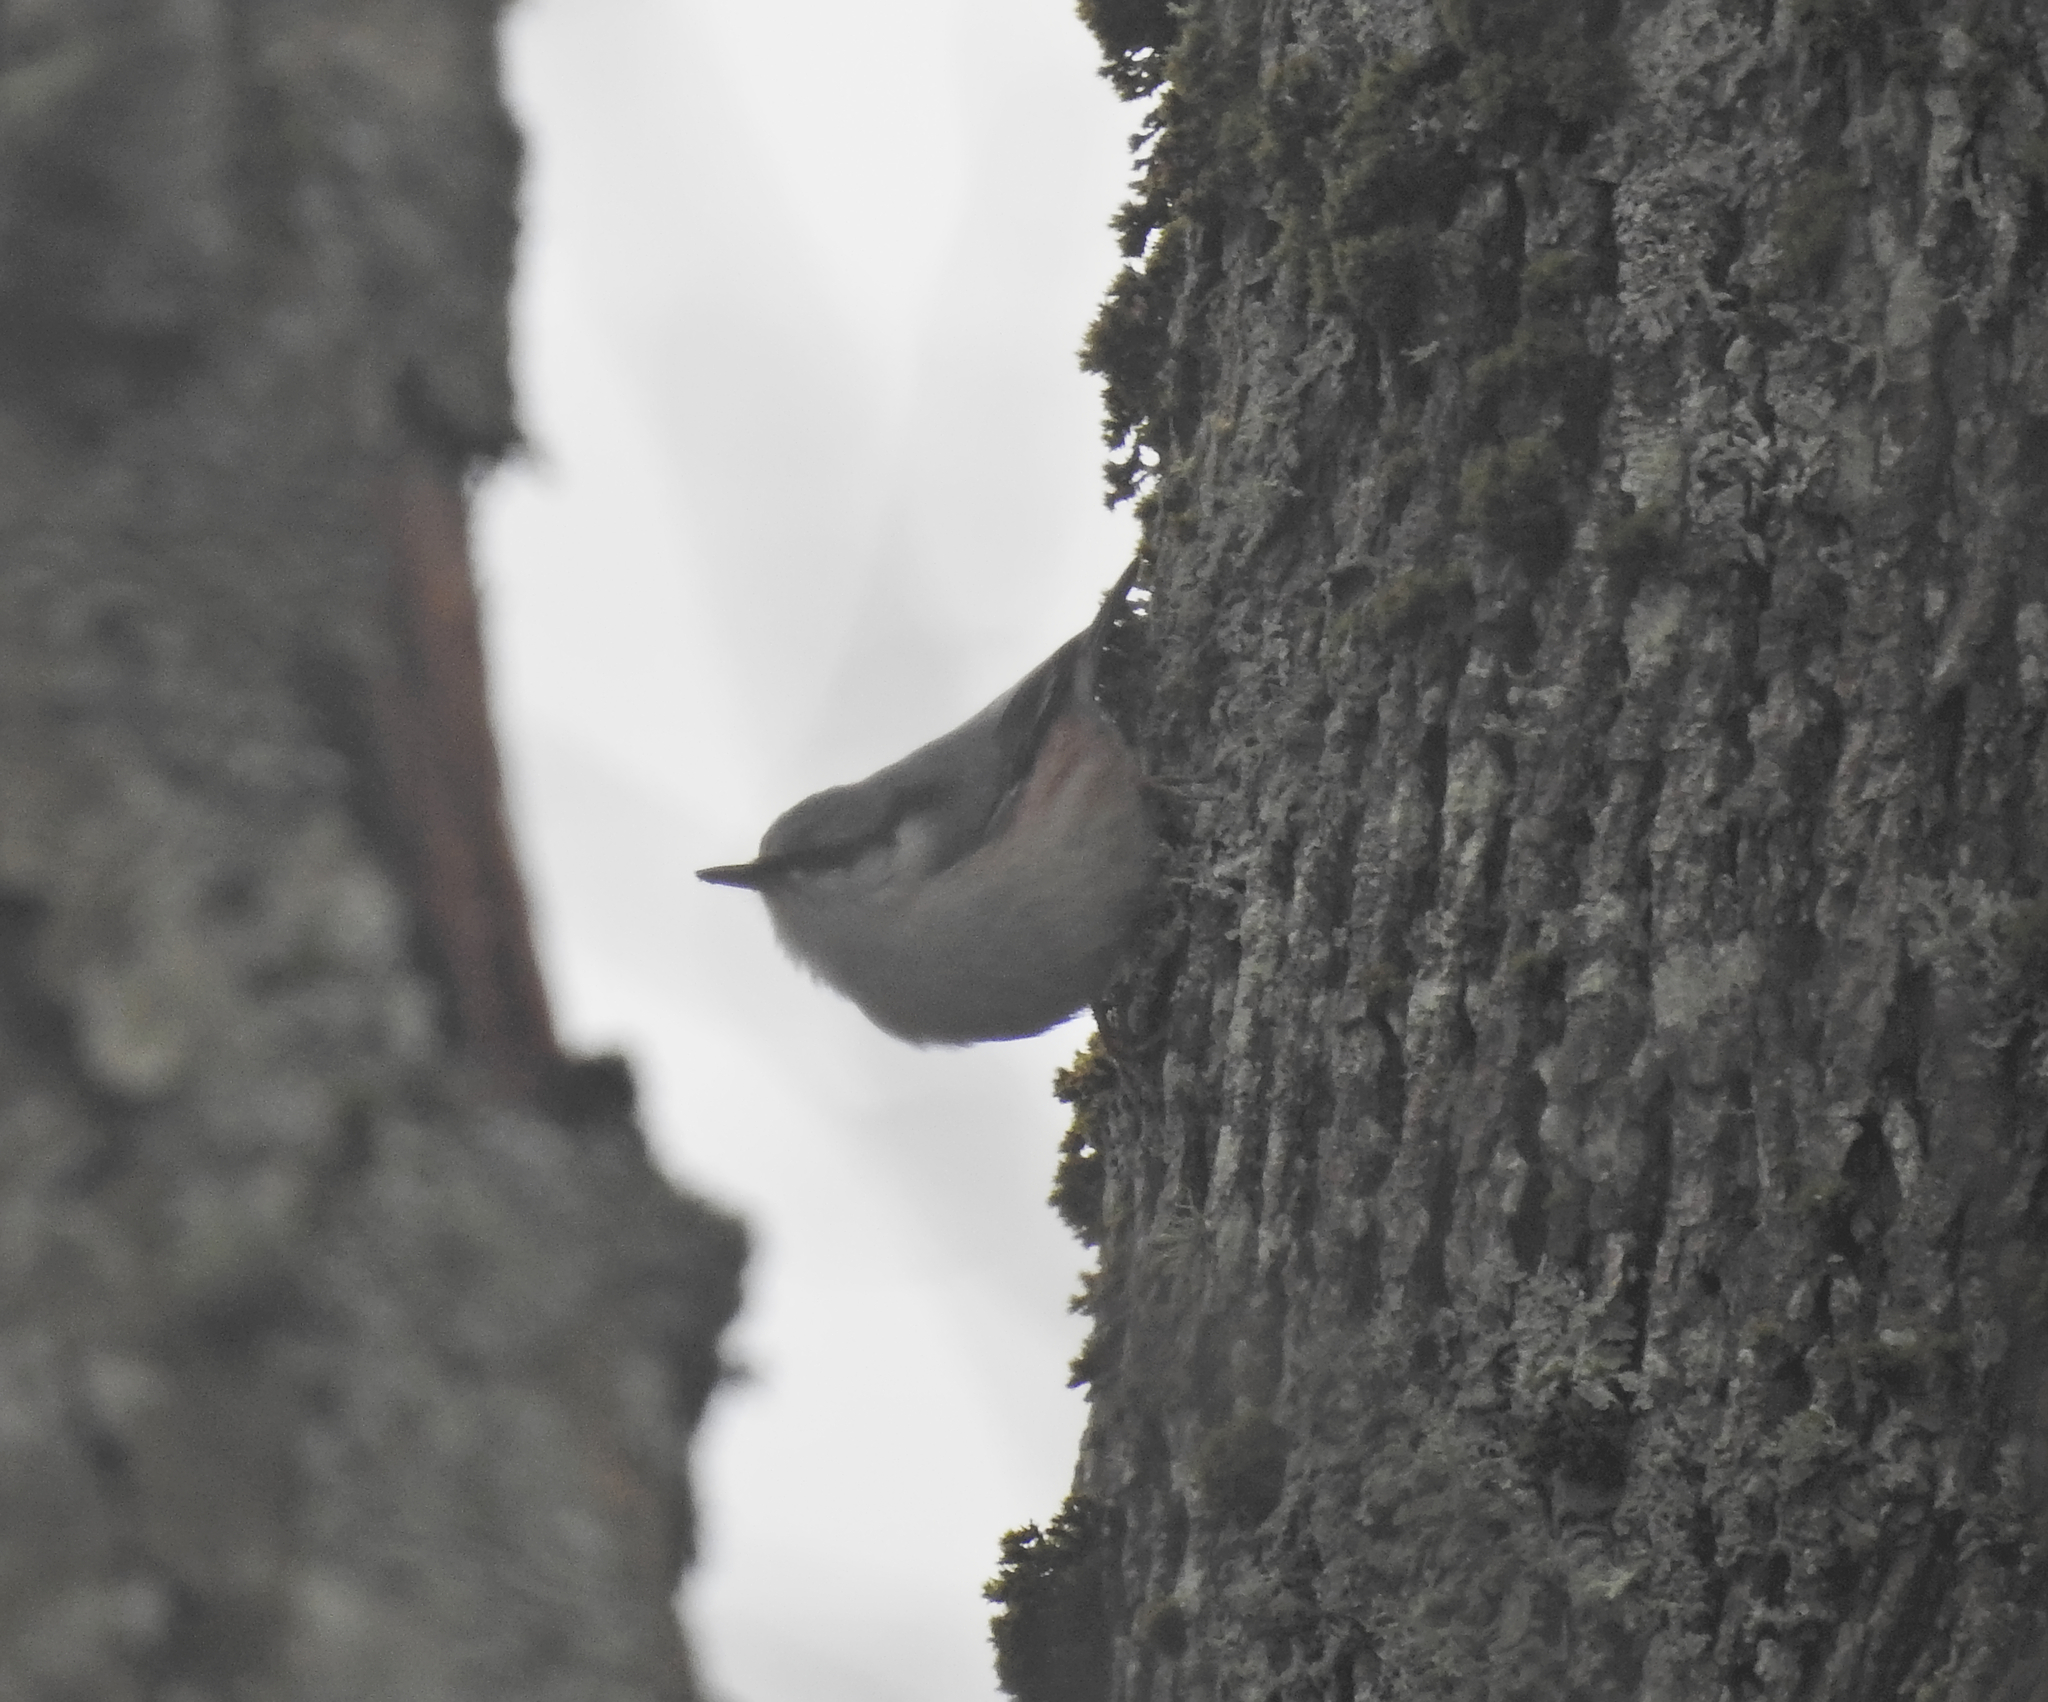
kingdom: Animalia
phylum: Chordata
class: Aves
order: Passeriformes
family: Sittidae
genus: Sitta
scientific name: Sitta europaea
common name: Eurasian nuthatch
